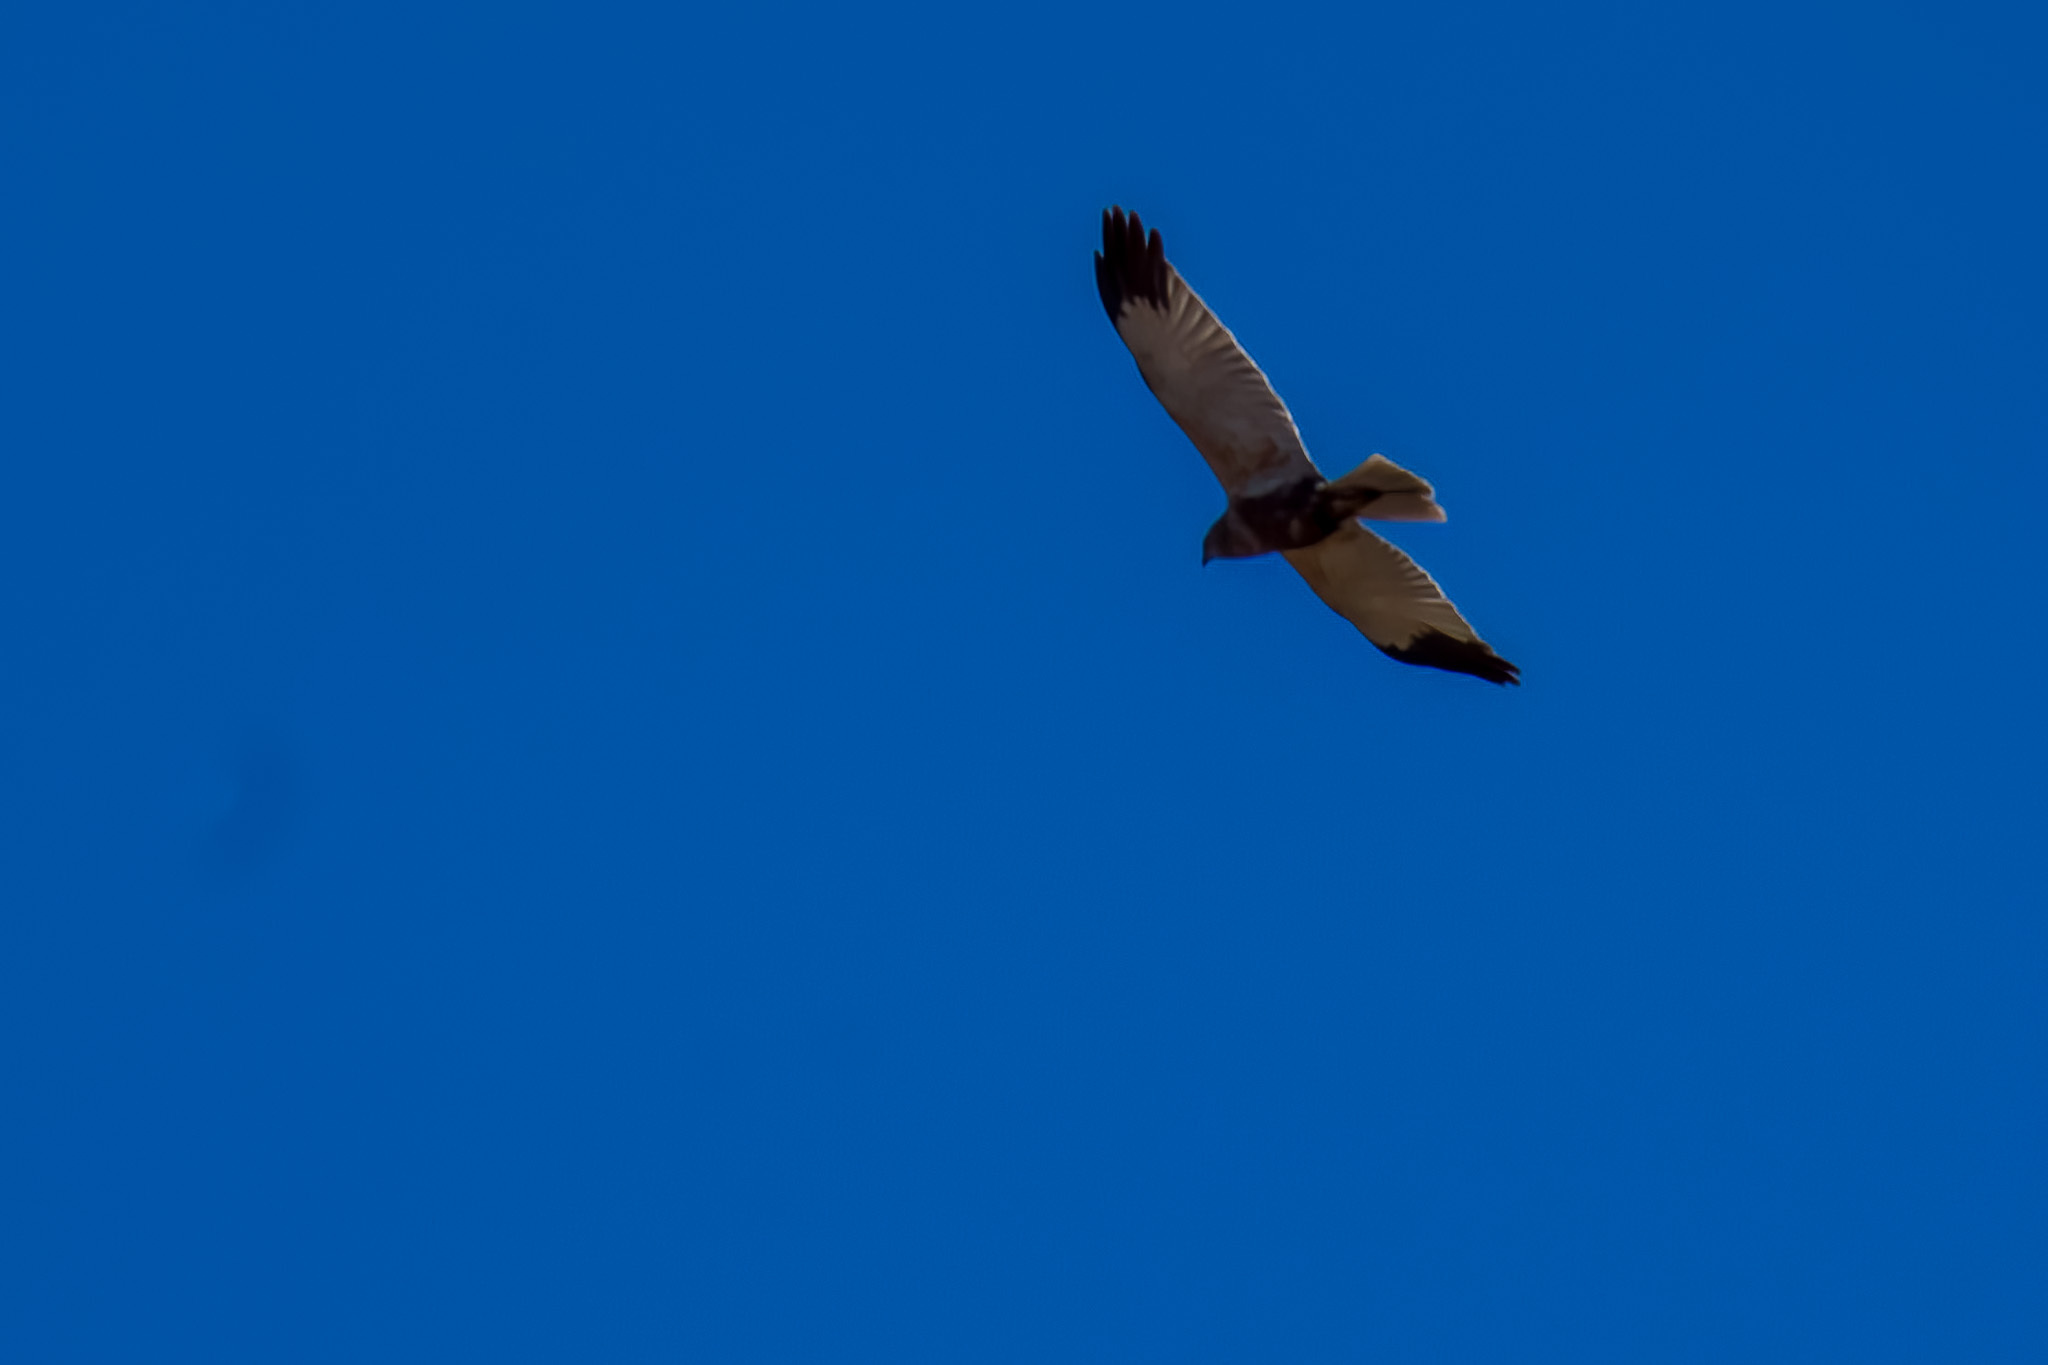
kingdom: Animalia
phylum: Chordata
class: Aves
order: Accipitriformes
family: Accipitridae
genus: Circus
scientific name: Circus aeruginosus
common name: Western marsh harrier
